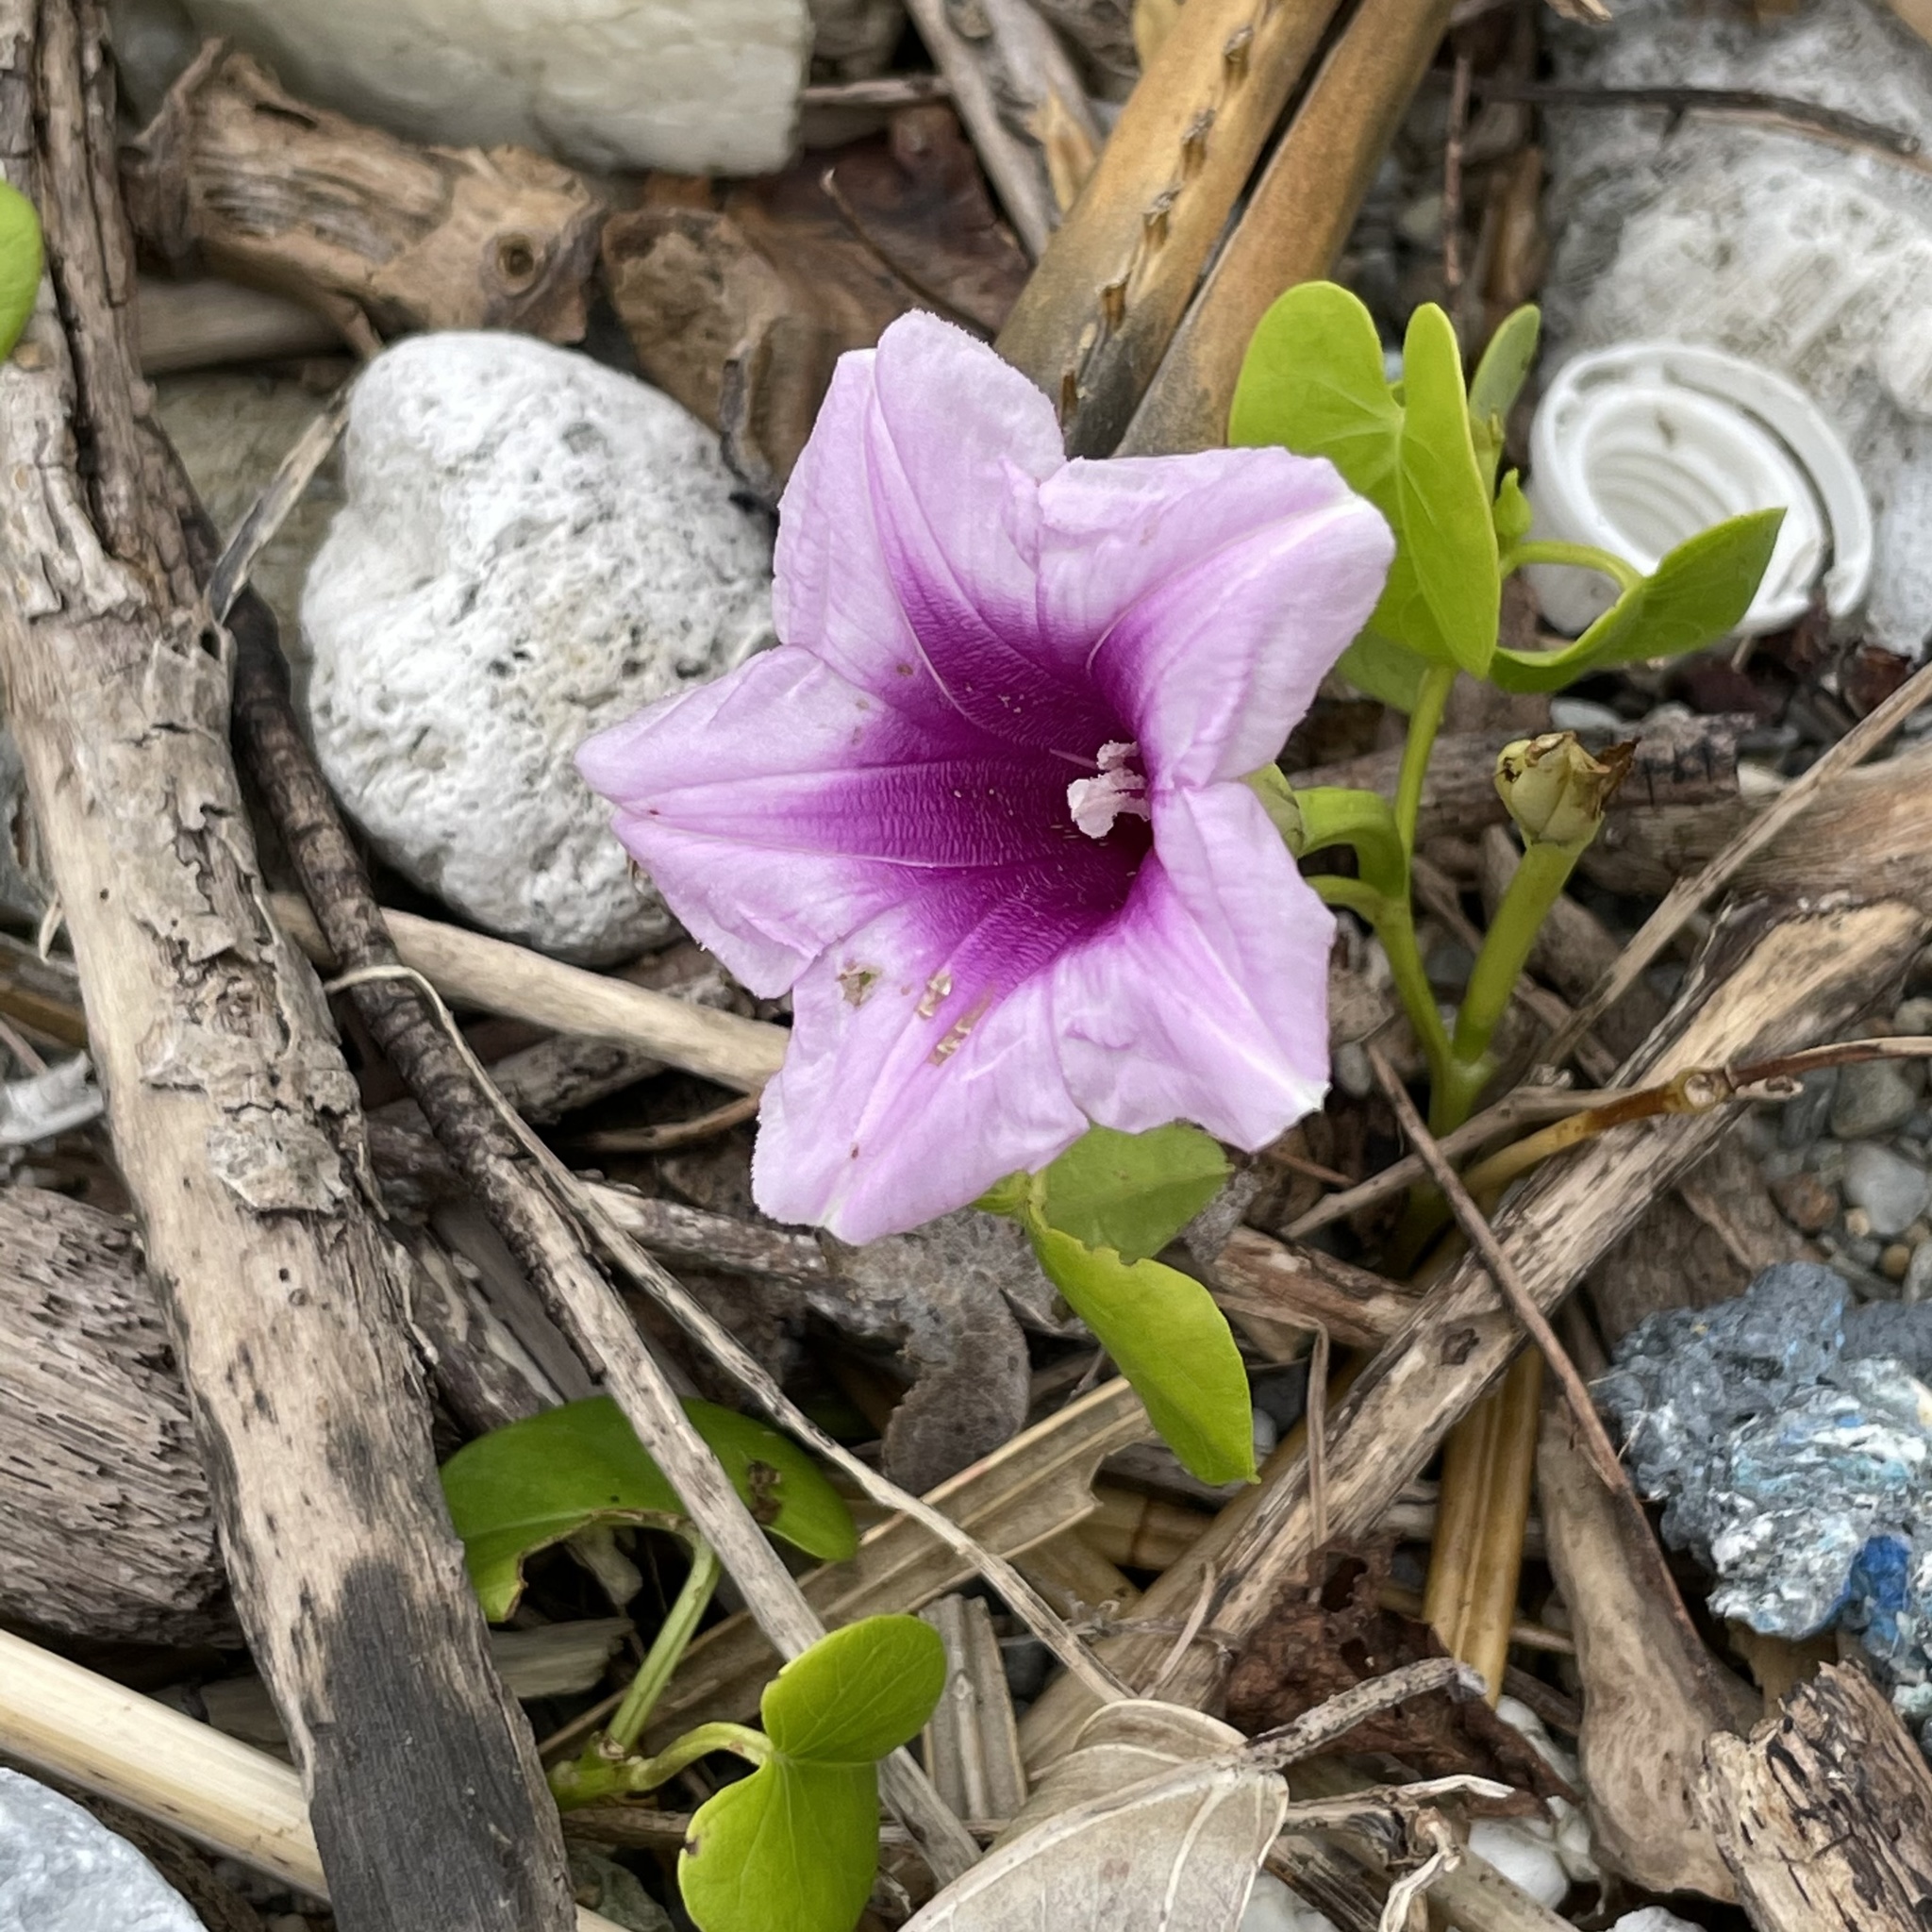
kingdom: Plantae
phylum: Tracheophyta
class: Magnoliopsida
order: Solanales
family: Convolvulaceae
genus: Ipomoea
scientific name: Ipomoea littoralis
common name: Coastal morning glory
